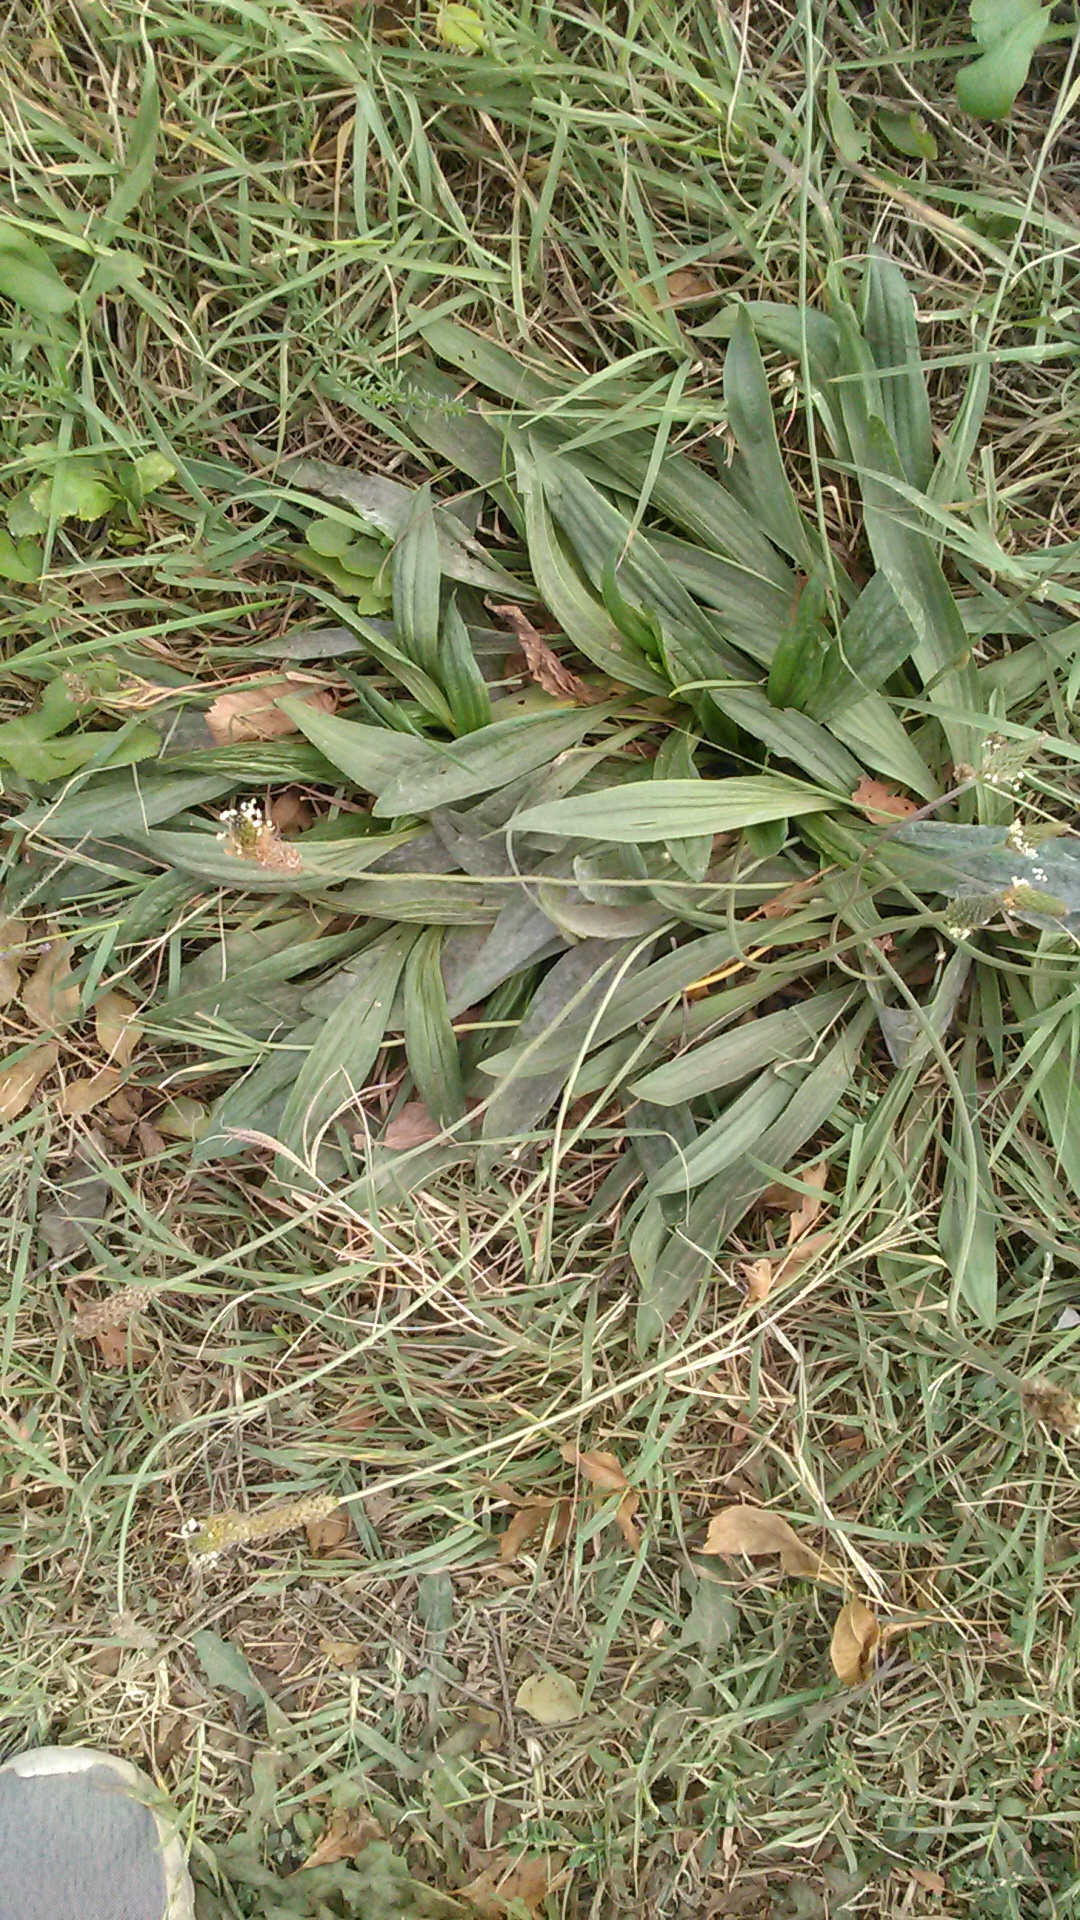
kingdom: Plantae
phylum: Tracheophyta
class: Magnoliopsida
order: Lamiales
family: Plantaginaceae
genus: Plantago
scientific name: Plantago lanceolata
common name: Ribwort plantain
